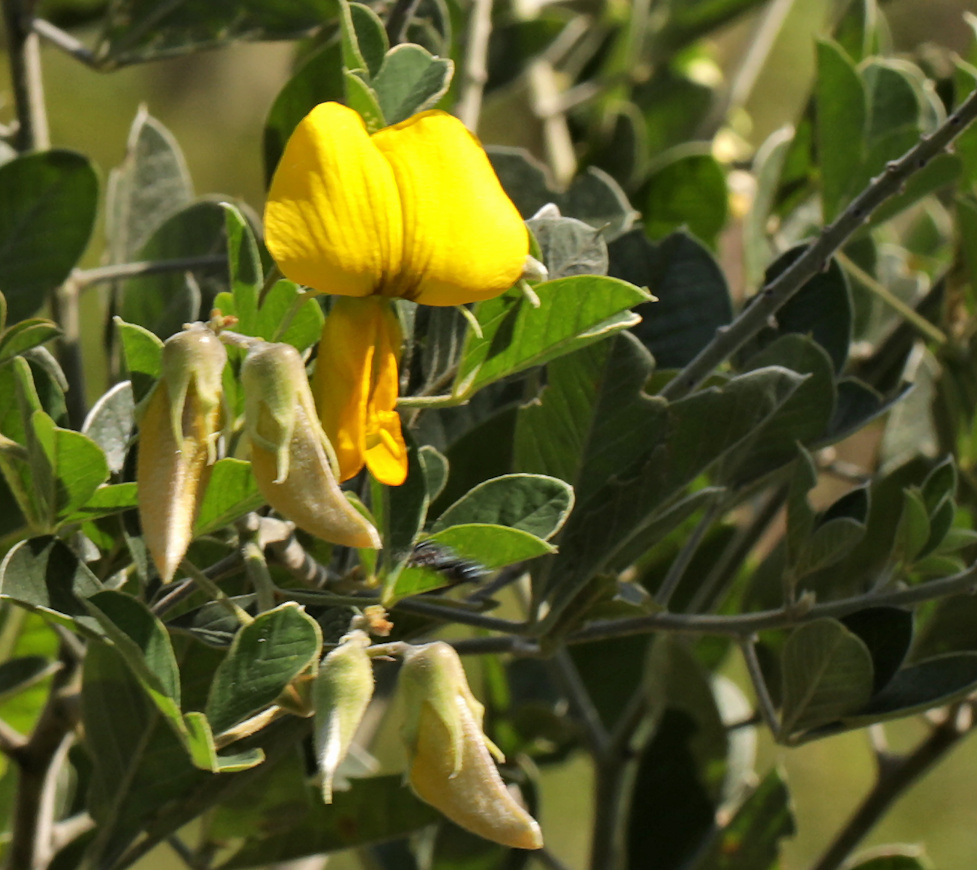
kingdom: Plantae
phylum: Tracheophyta
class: Magnoliopsida
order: Fabales
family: Fabaceae
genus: Crotalaria
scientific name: Crotalaria doidgeae
